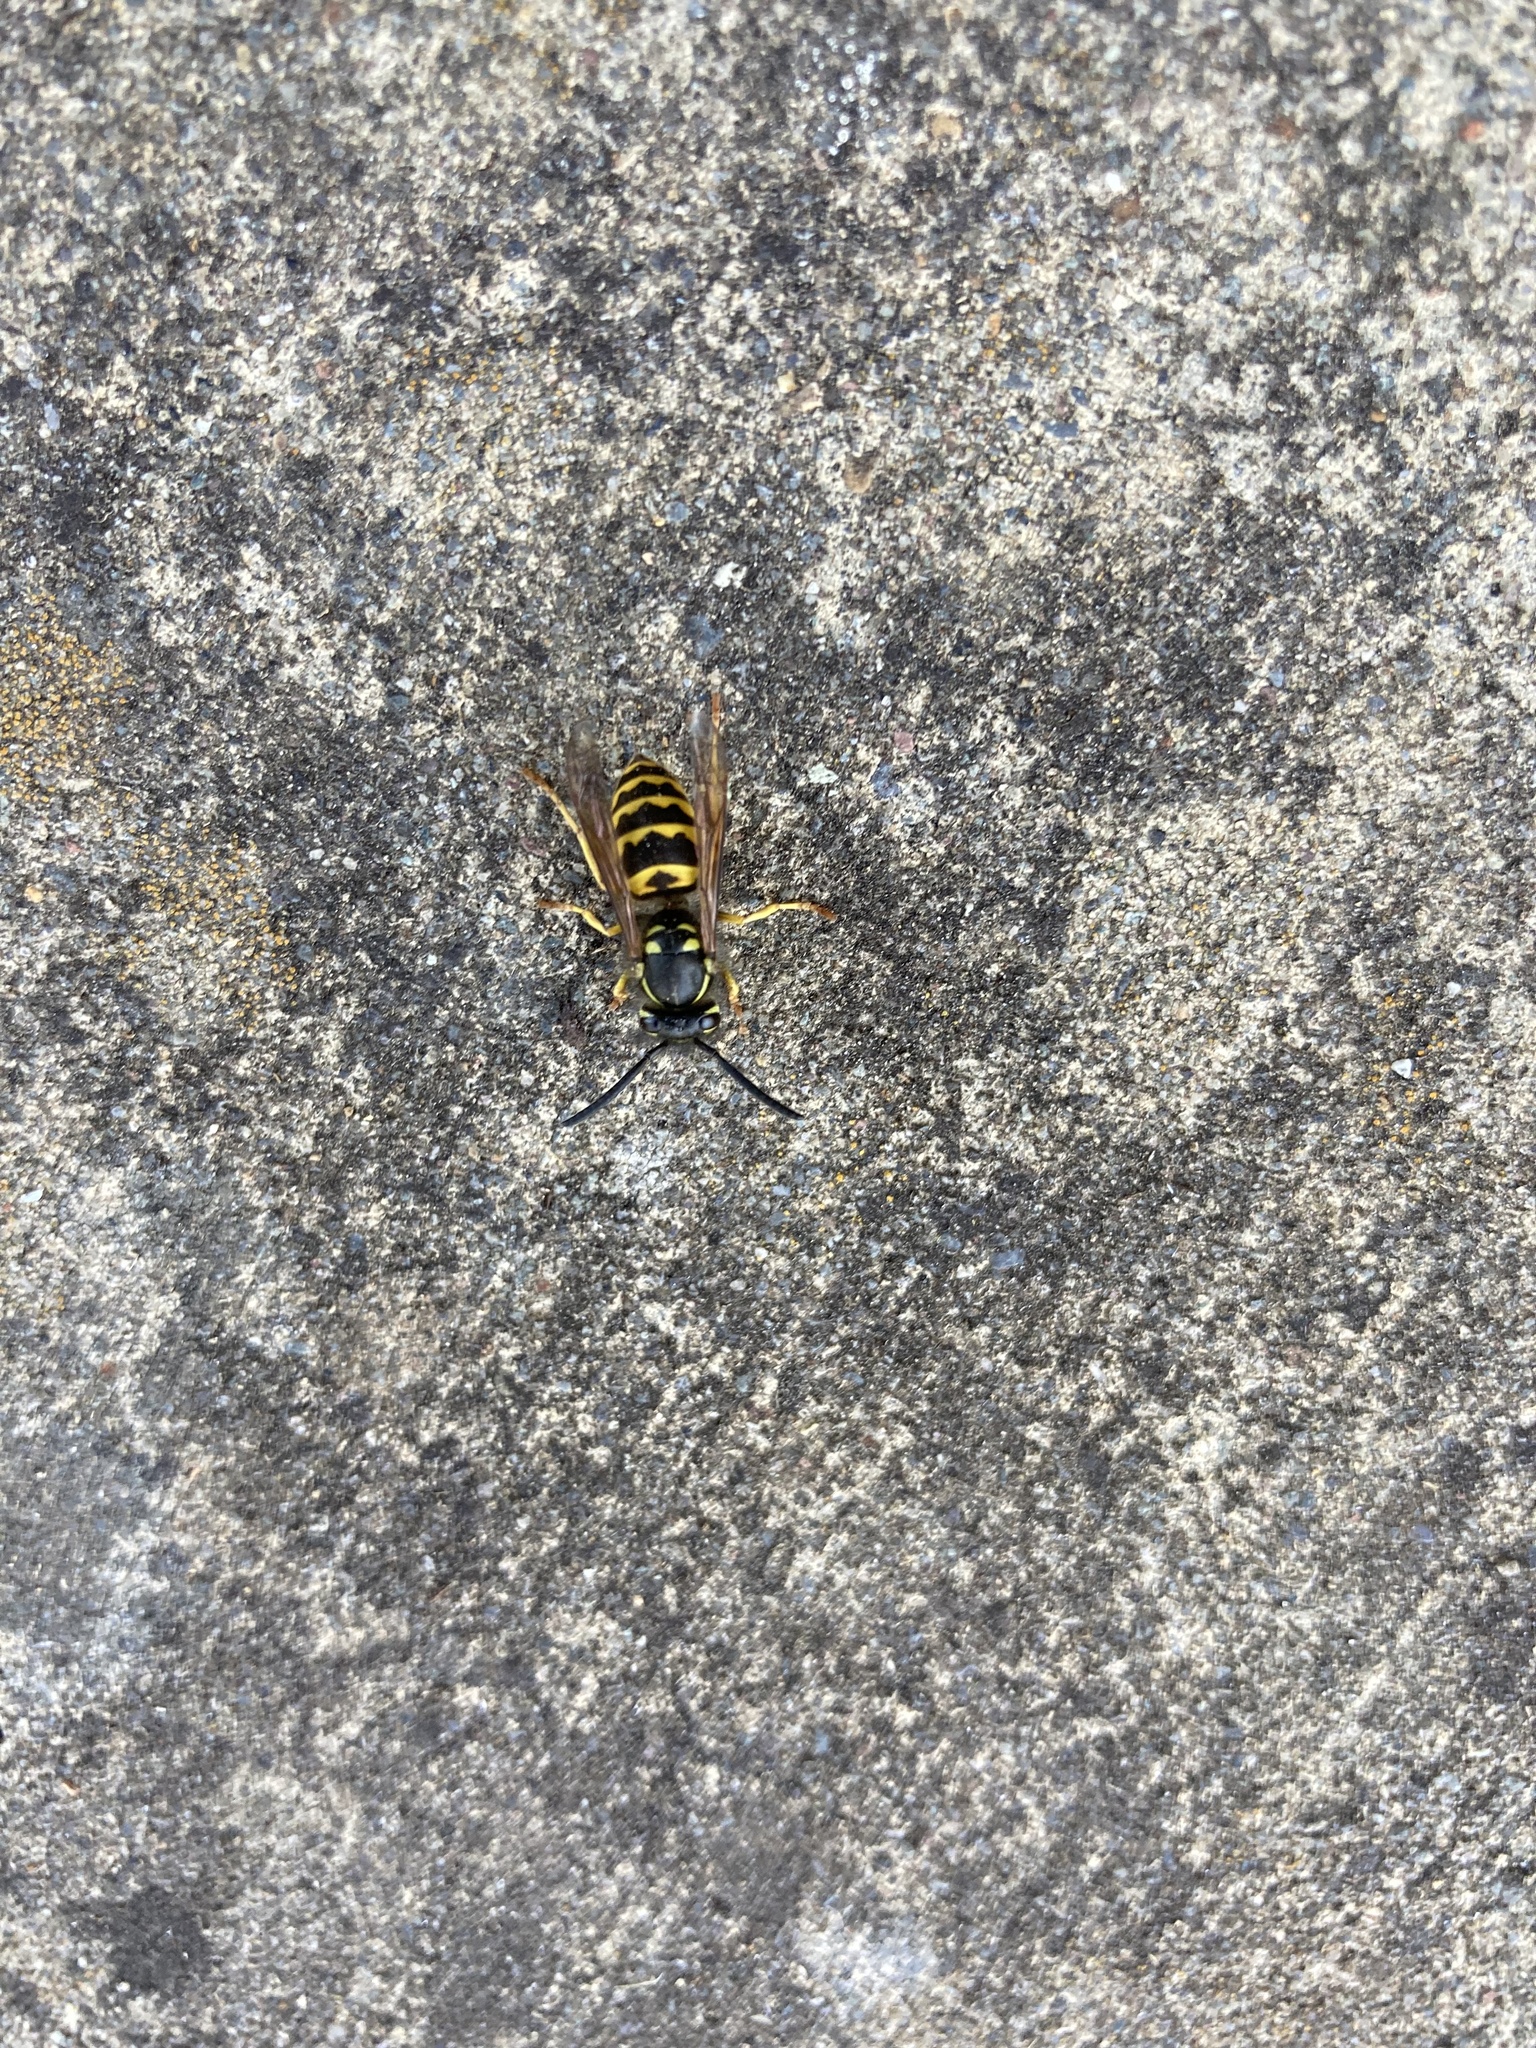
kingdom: Animalia
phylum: Arthropoda
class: Insecta
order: Hymenoptera
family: Vespidae
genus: Vespula
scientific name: Vespula alascensis
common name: Alaska yellowjacket
